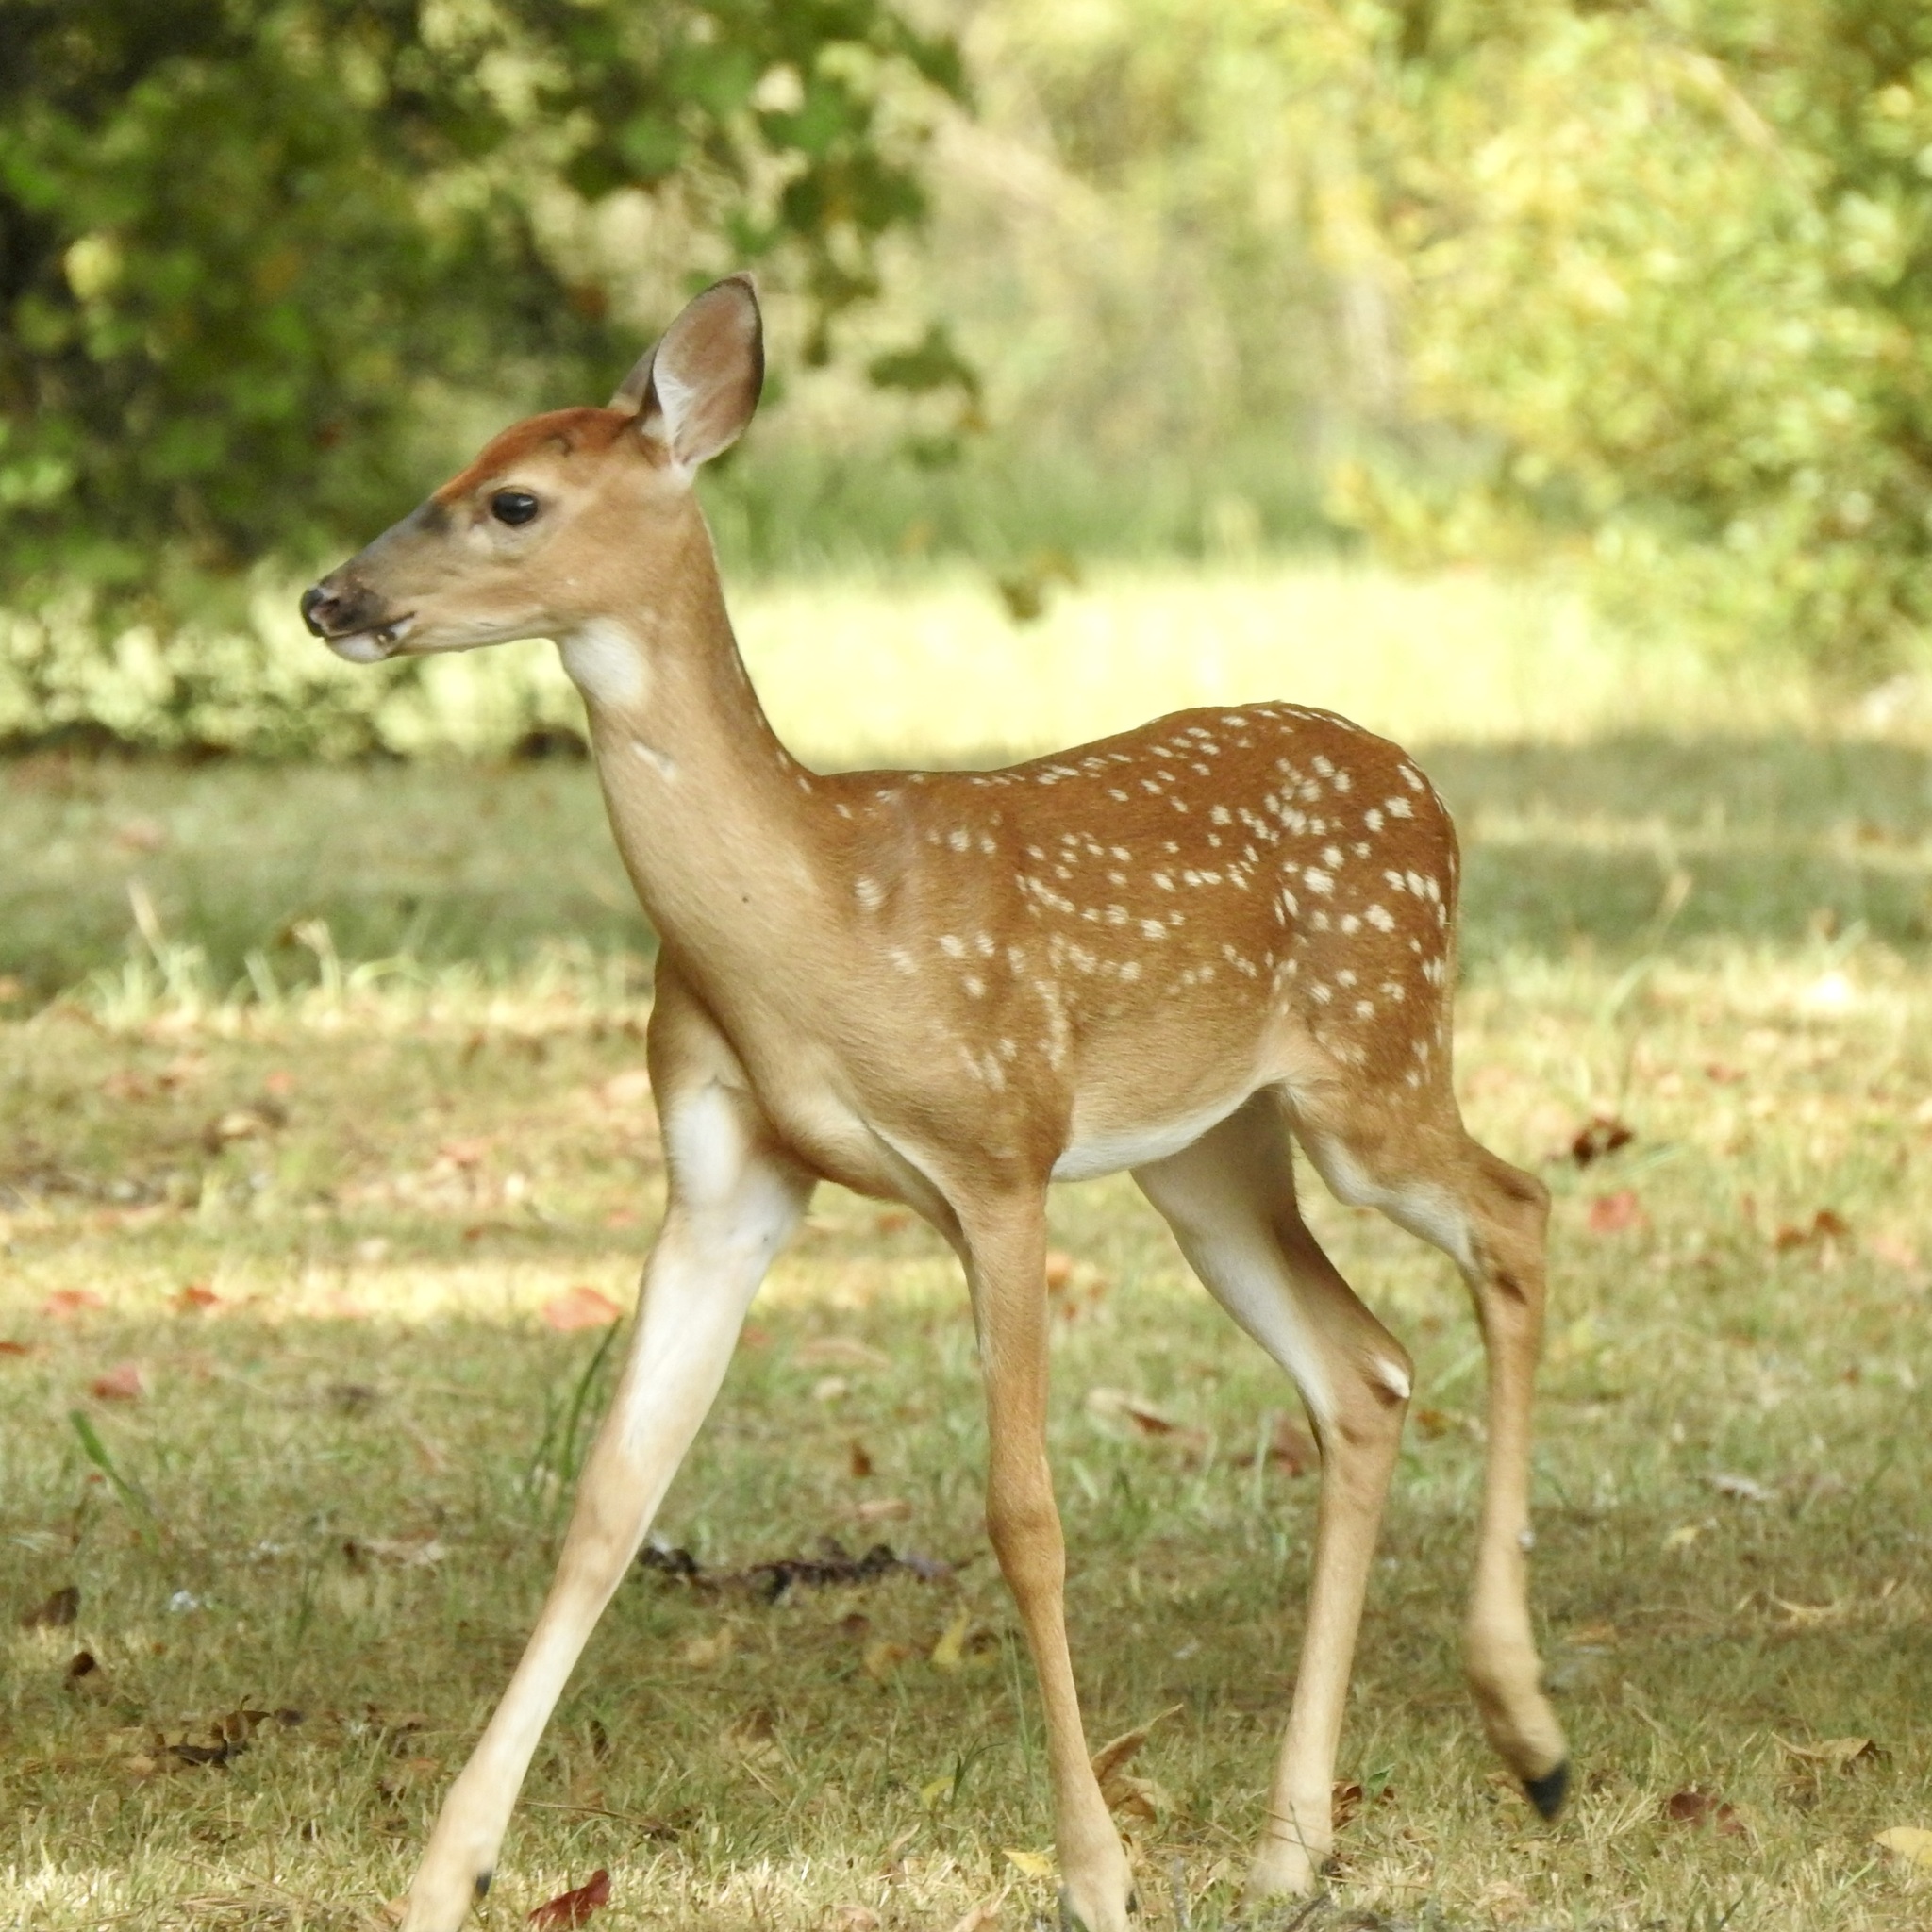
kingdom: Animalia
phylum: Chordata
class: Mammalia
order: Artiodactyla
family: Cervidae
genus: Odocoileus
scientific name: Odocoileus virginianus
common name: White-tailed deer
